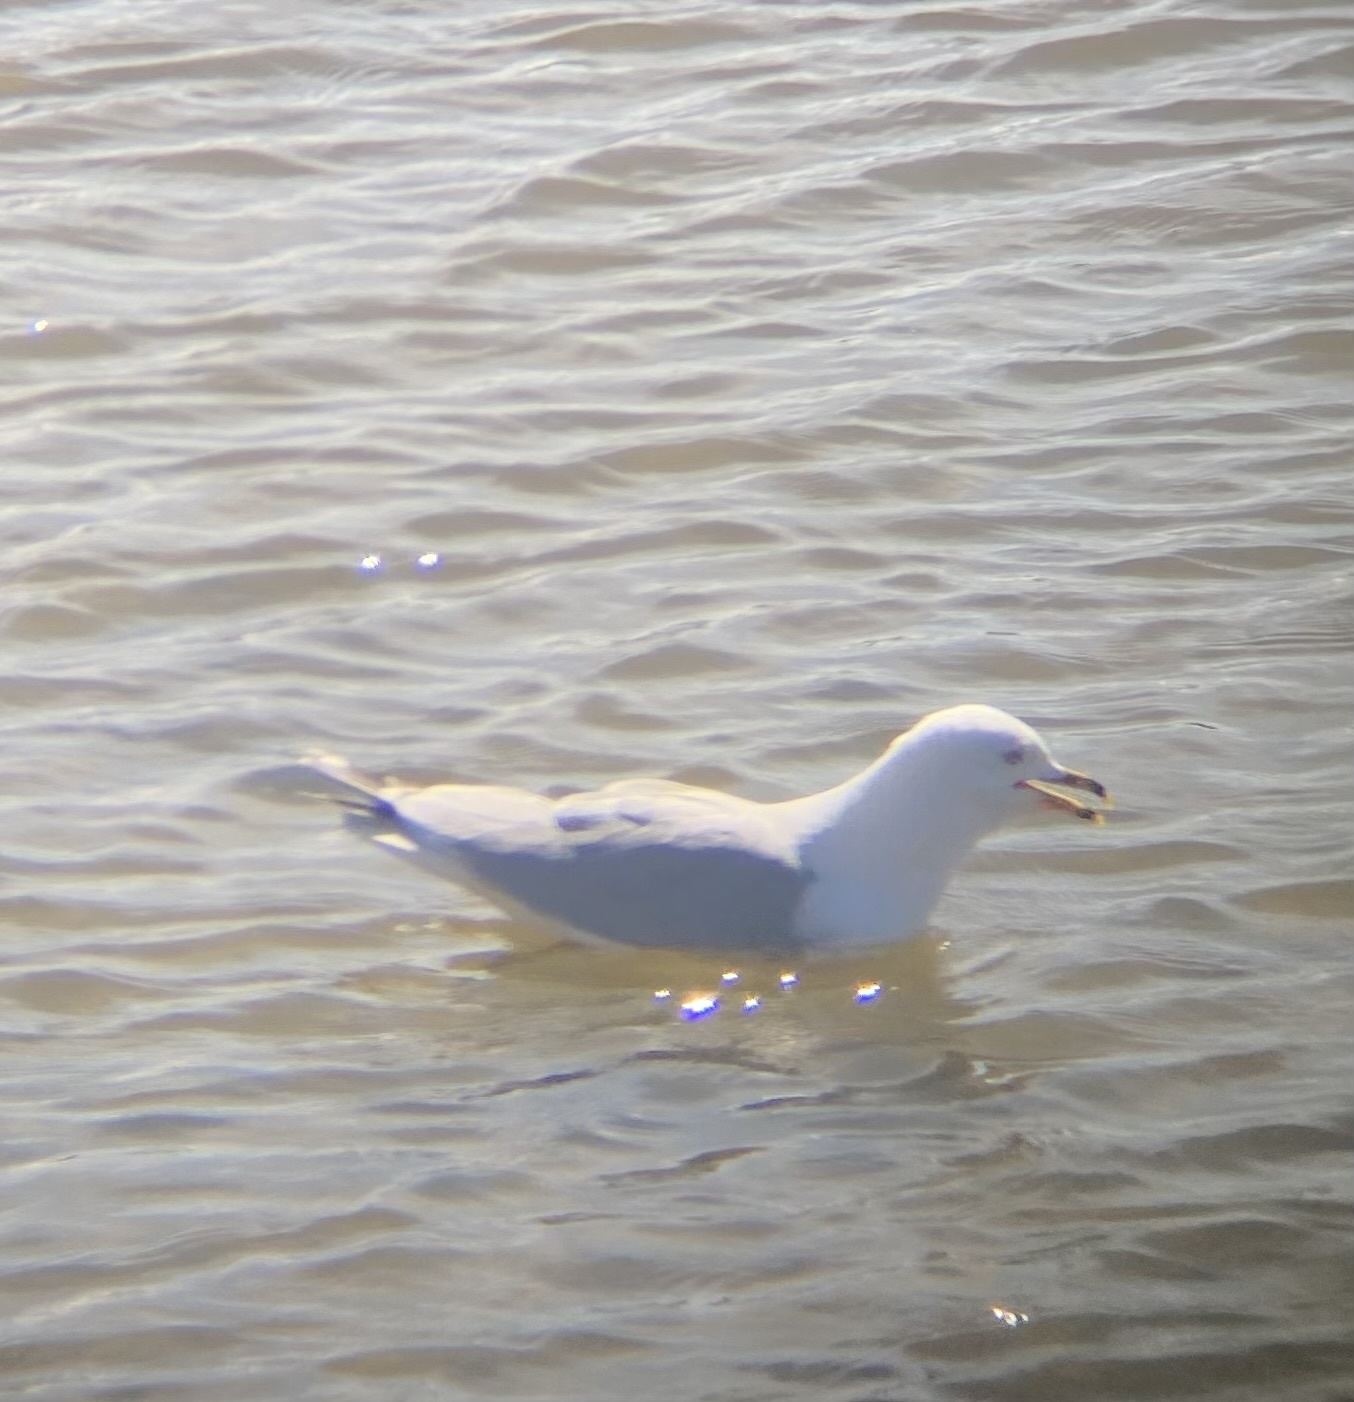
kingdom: Animalia
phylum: Chordata
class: Aves
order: Charadriiformes
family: Laridae
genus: Larus
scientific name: Larus delawarensis
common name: Ring-billed gull
